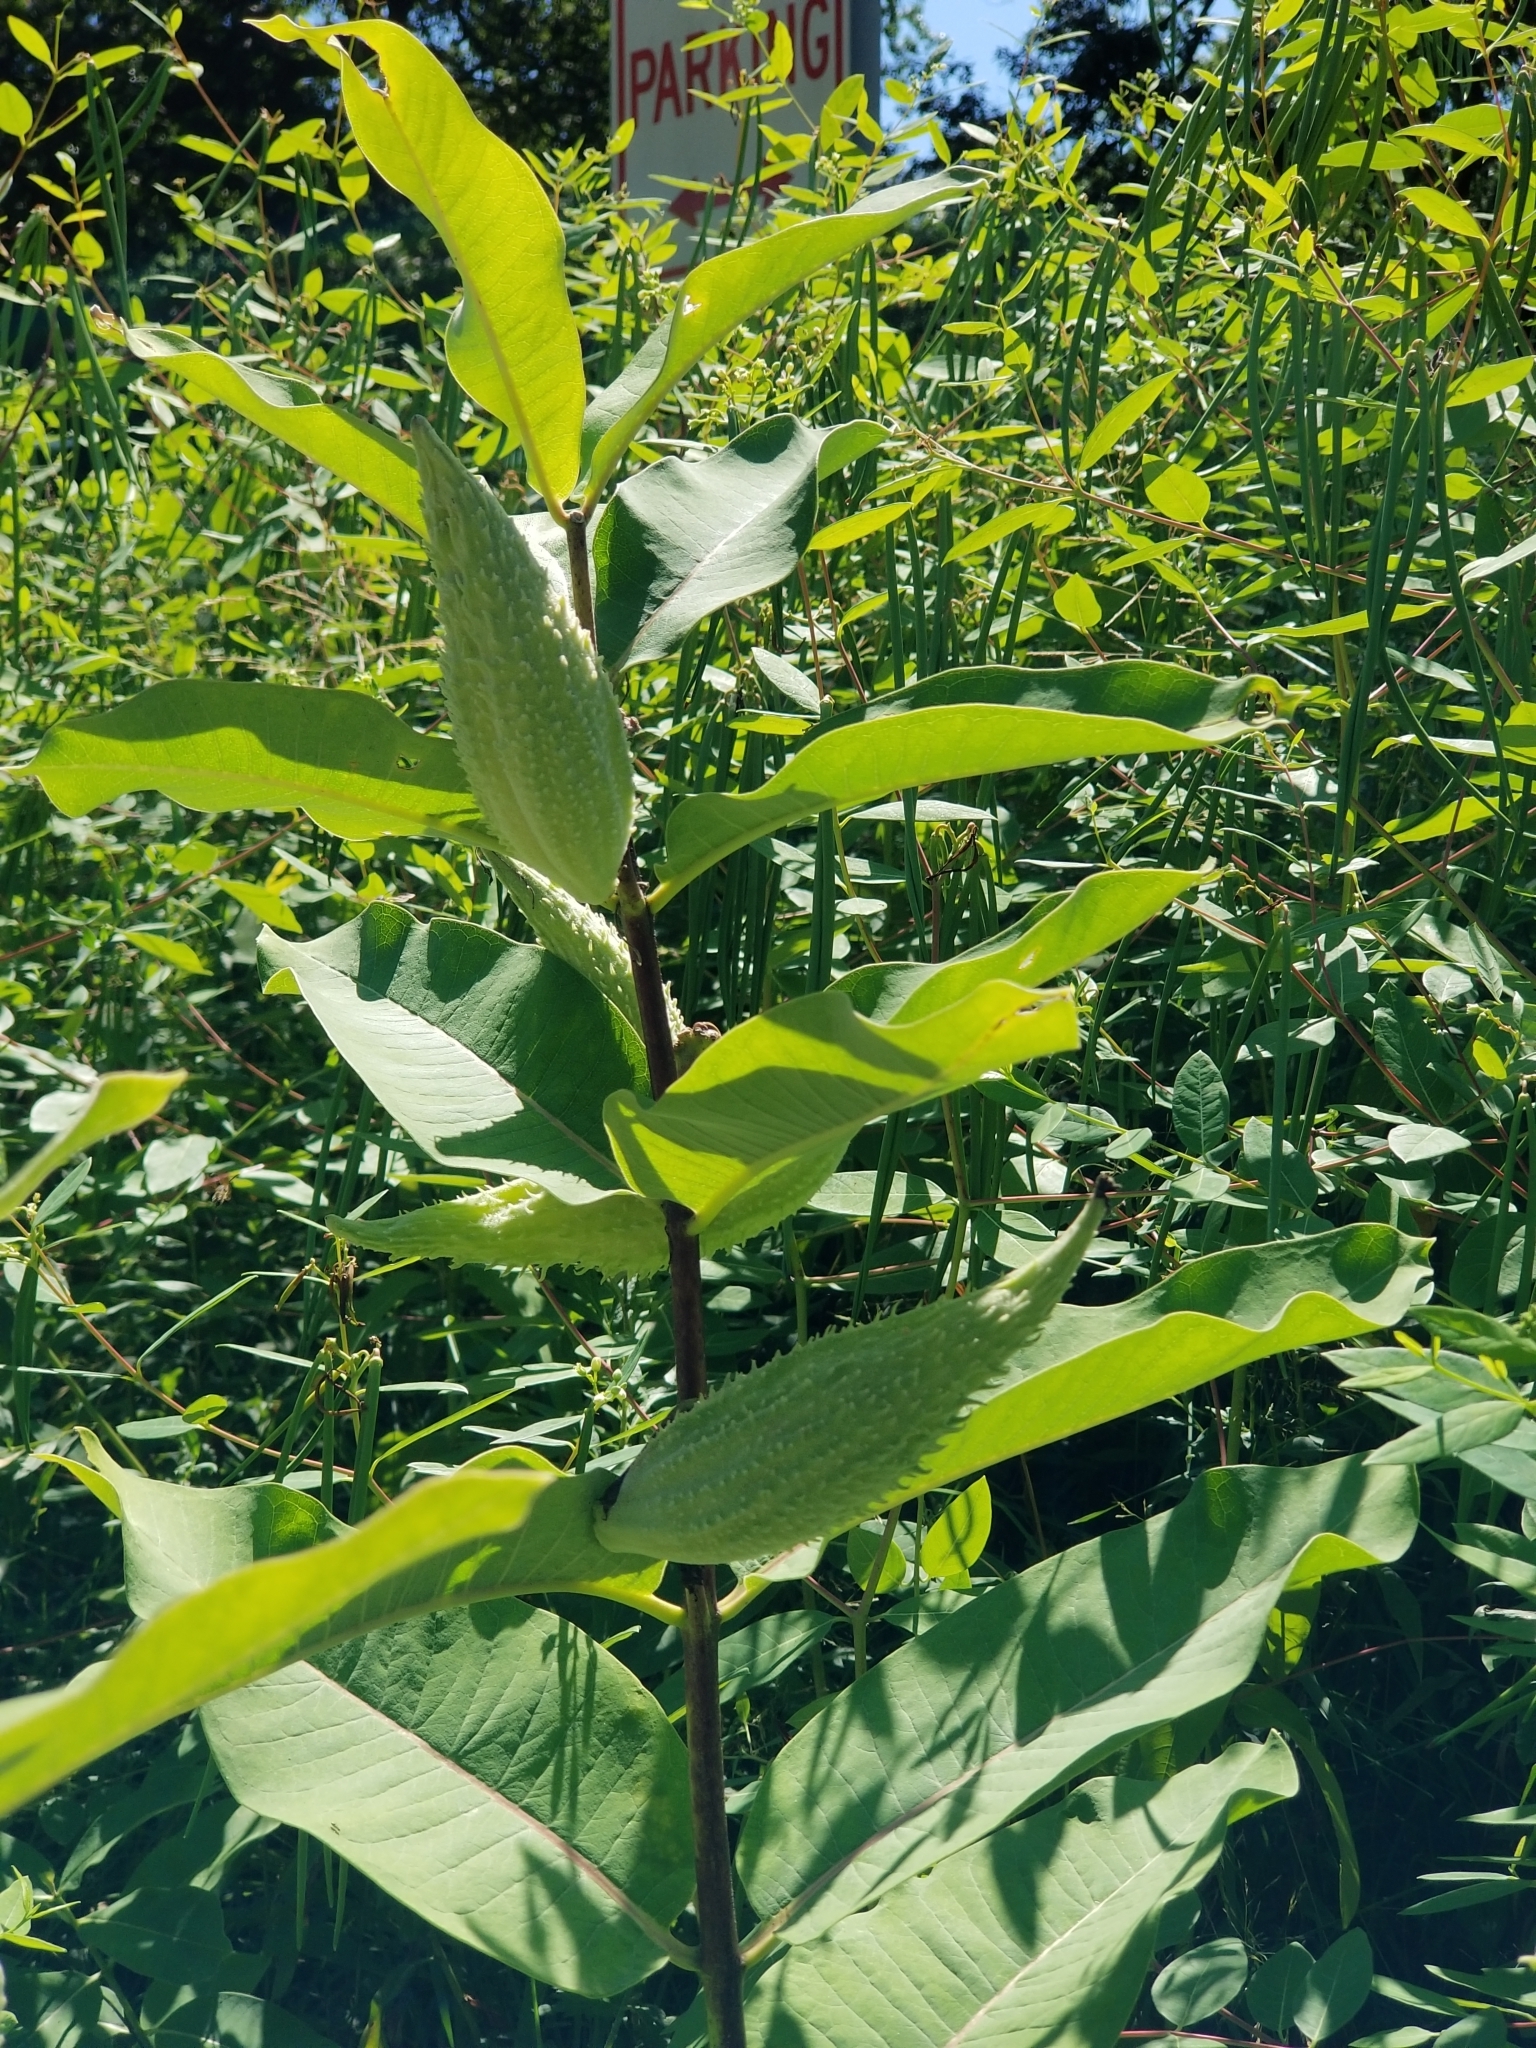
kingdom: Plantae
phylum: Tracheophyta
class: Magnoliopsida
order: Gentianales
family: Apocynaceae
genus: Asclepias
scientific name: Asclepias syriaca
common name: Common milkweed
